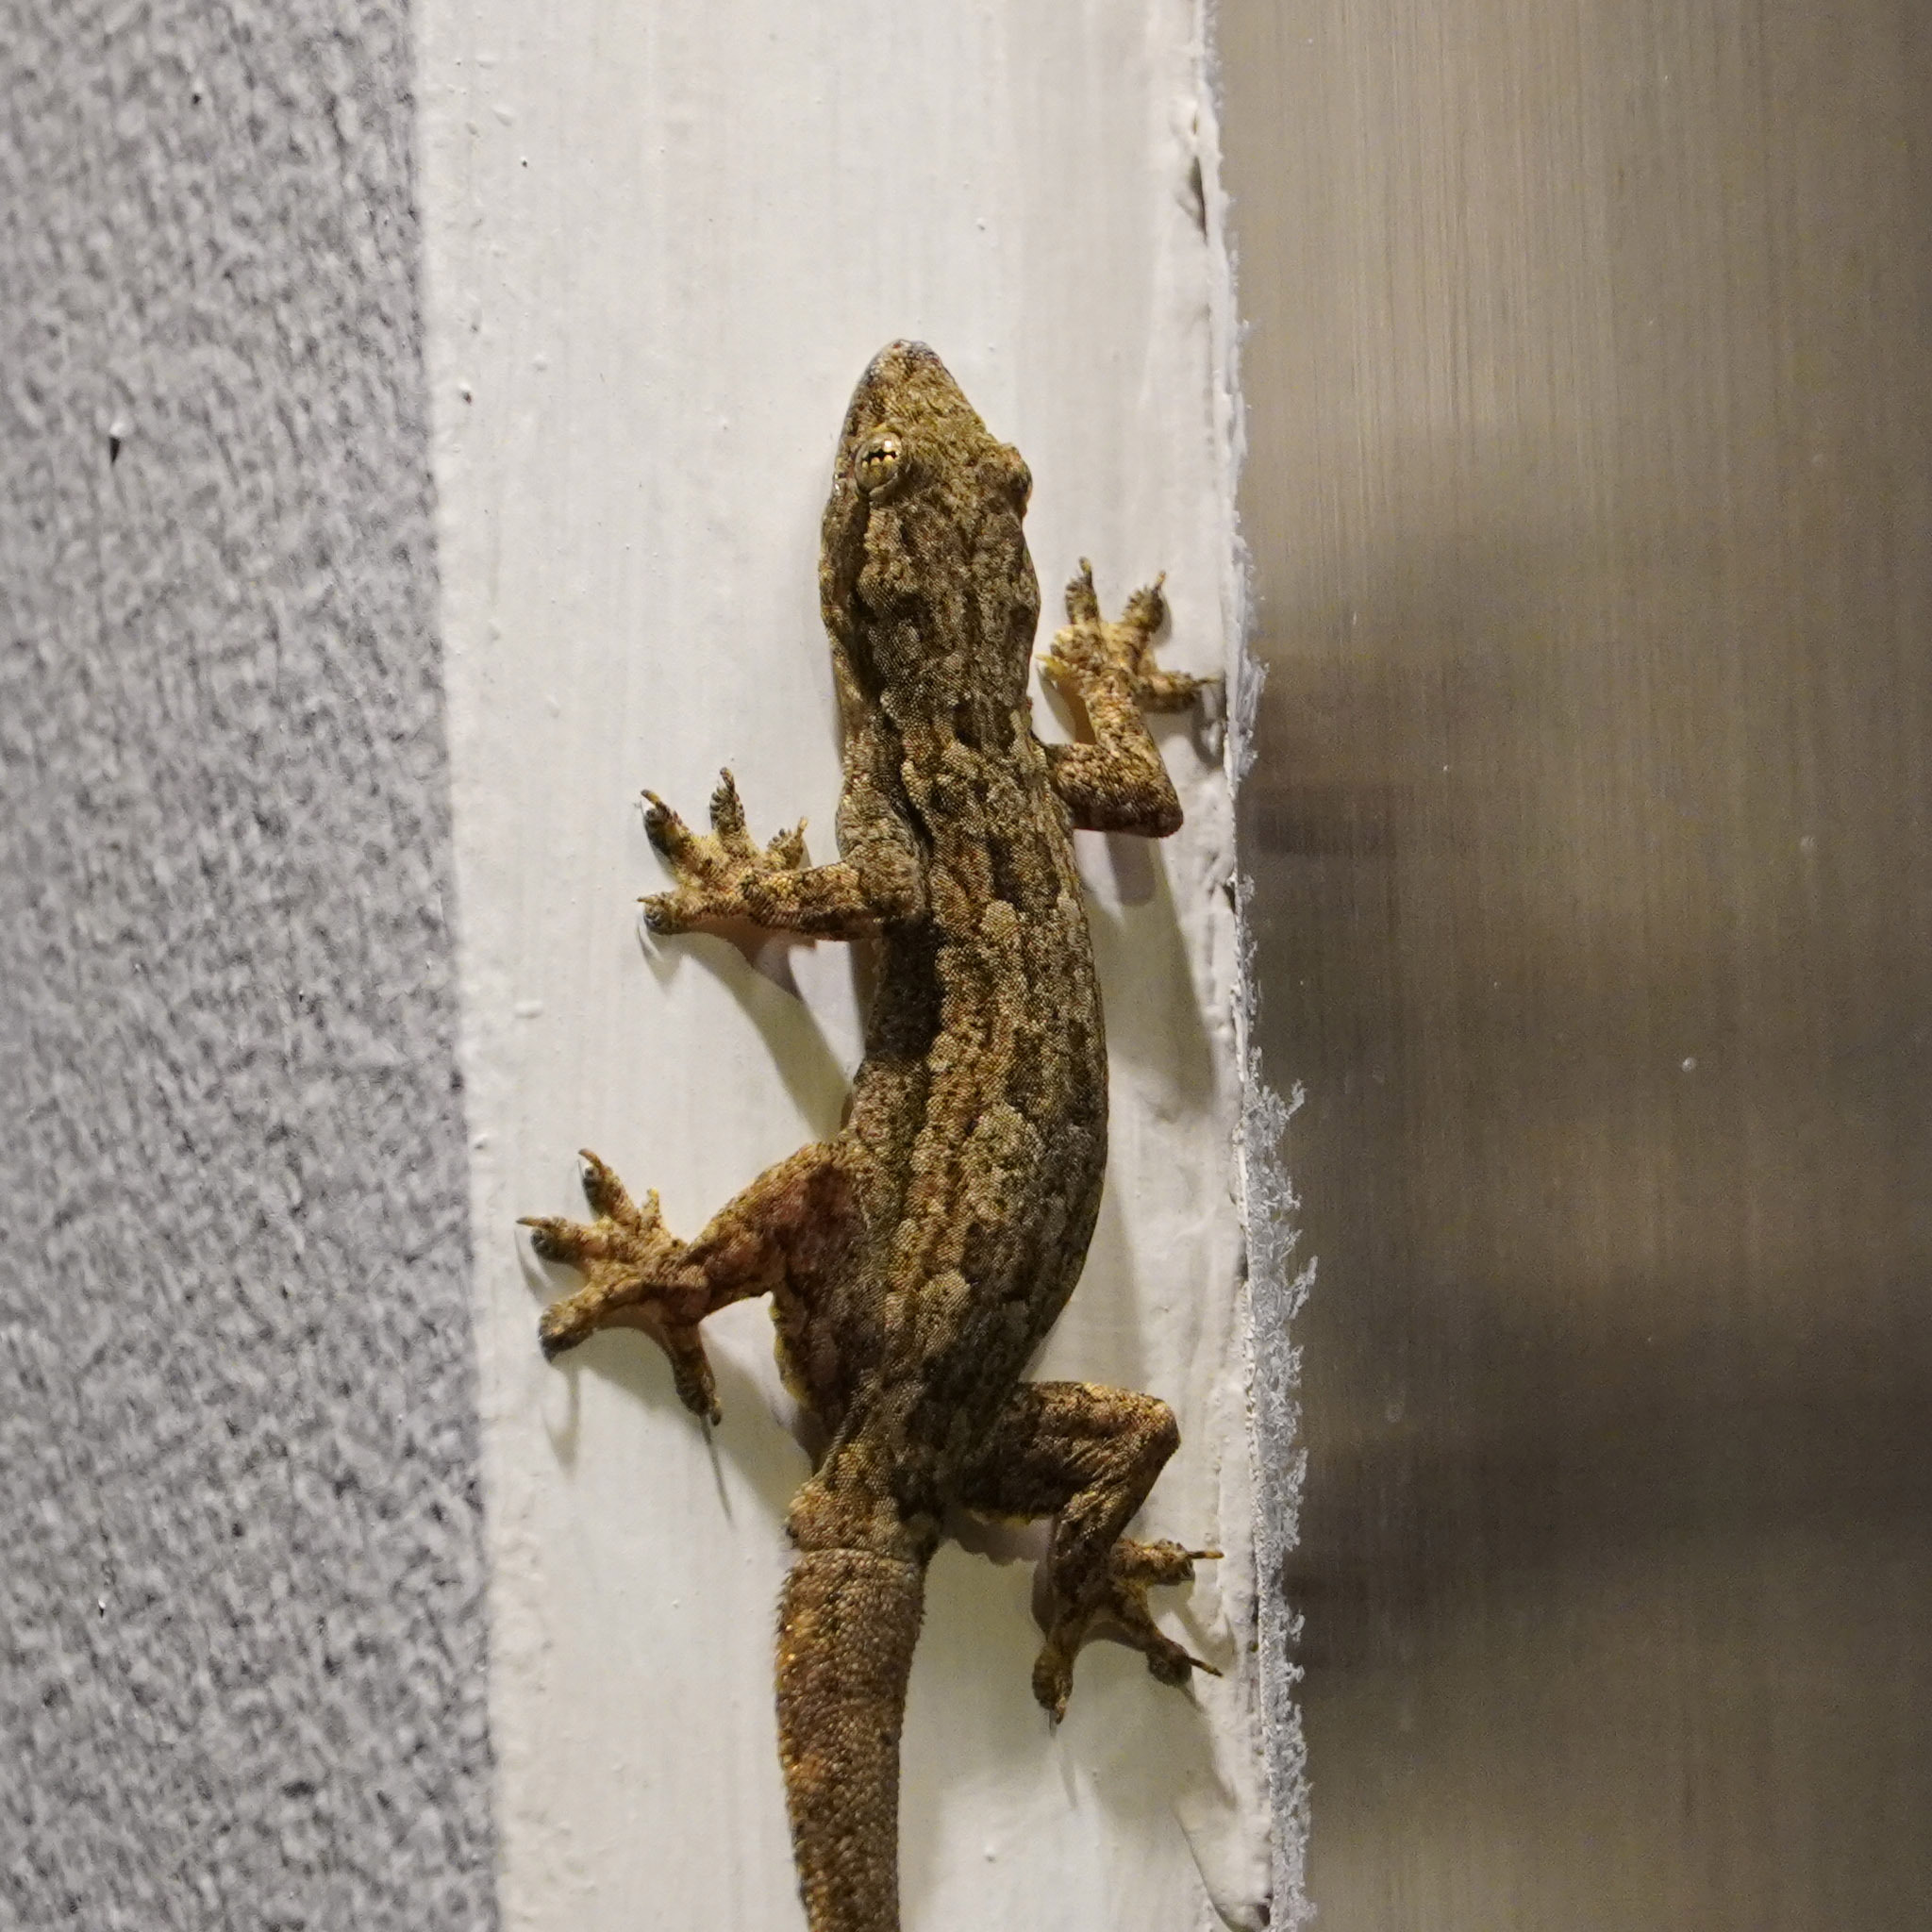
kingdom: Animalia
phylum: Chordata
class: Squamata
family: Gekkonidae
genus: Hemidactylus
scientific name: Hemidactylus platyurus
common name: Flat-tailed house gecko
